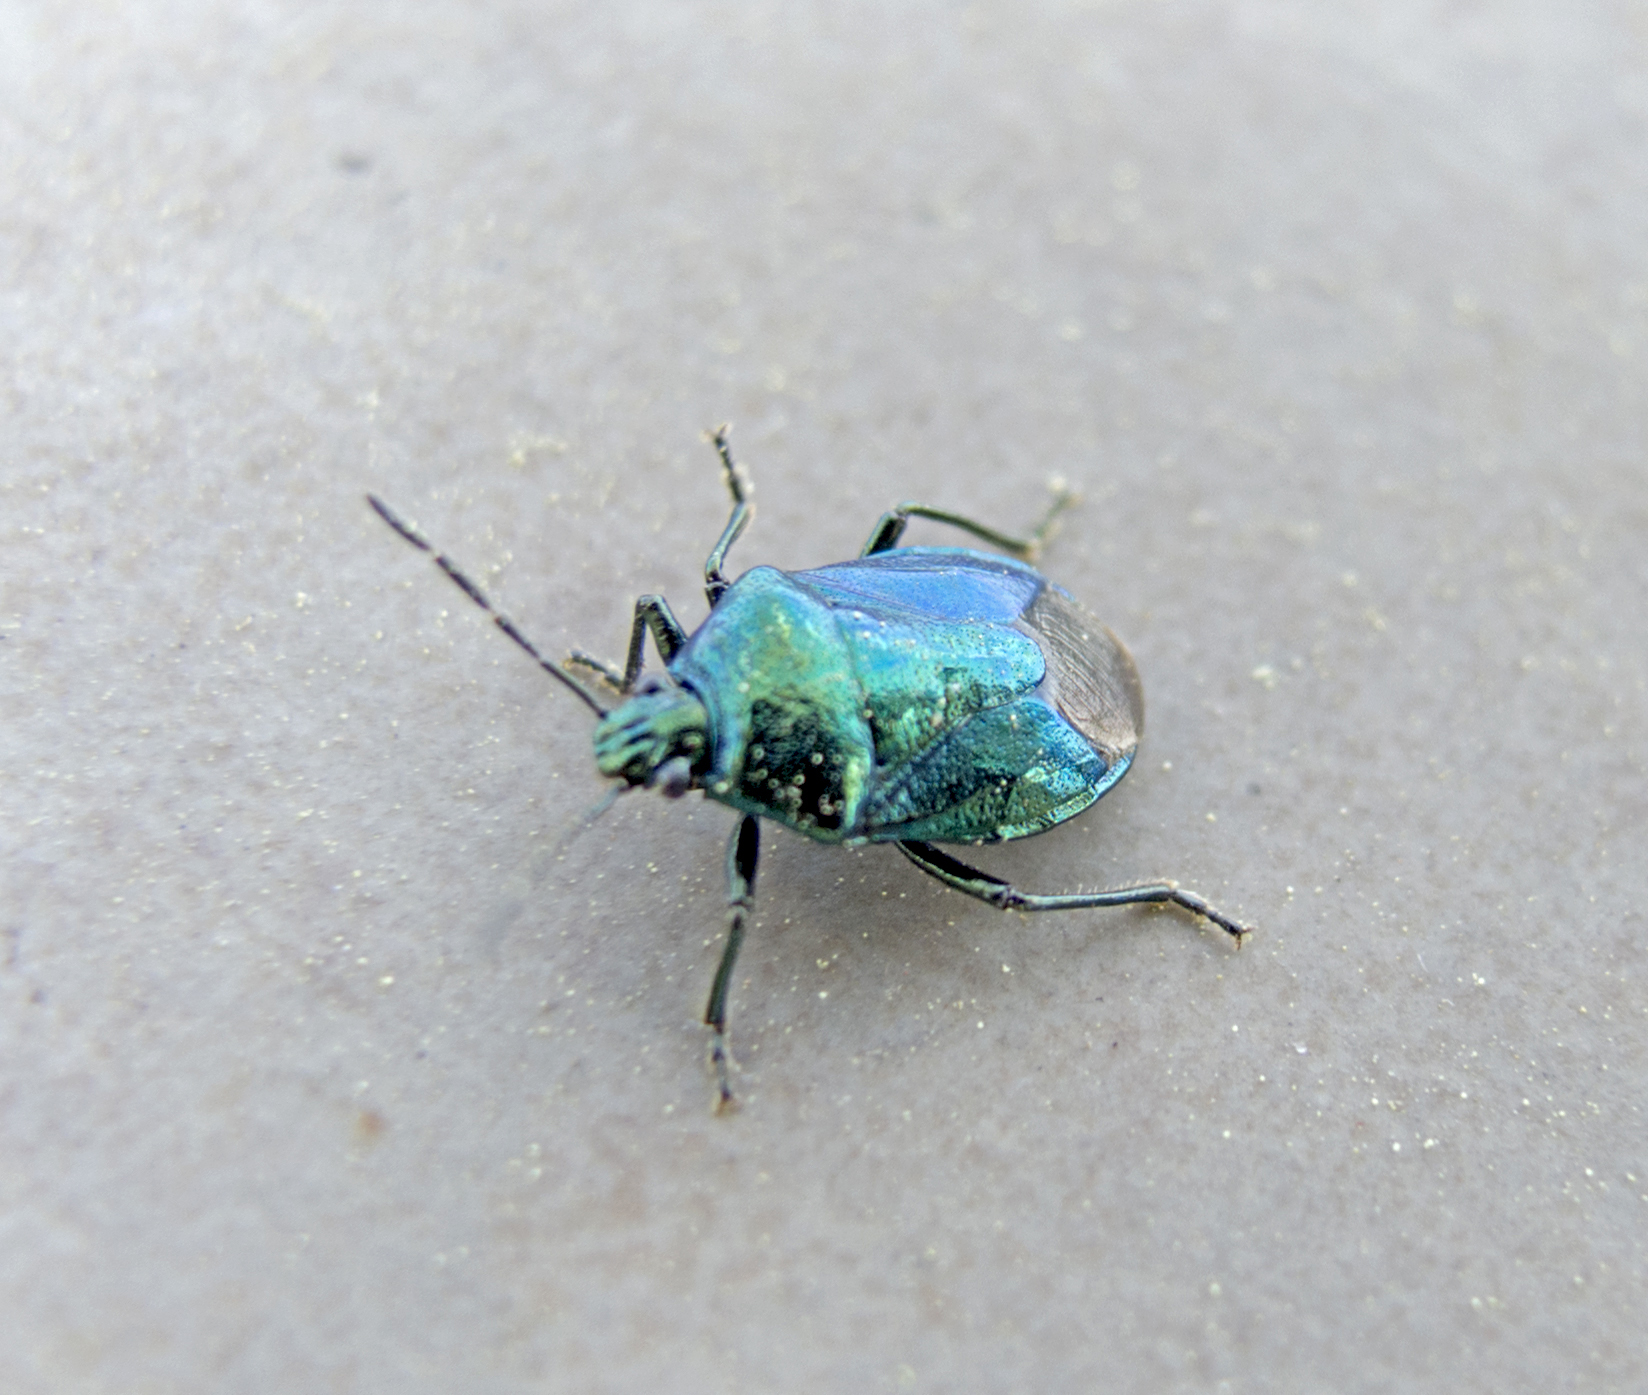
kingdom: Animalia
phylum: Arthropoda
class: Insecta
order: Hemiptera
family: Pentatomidae
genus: Zicrona
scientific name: Zicrona caerulea
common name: Blue shieldbug
